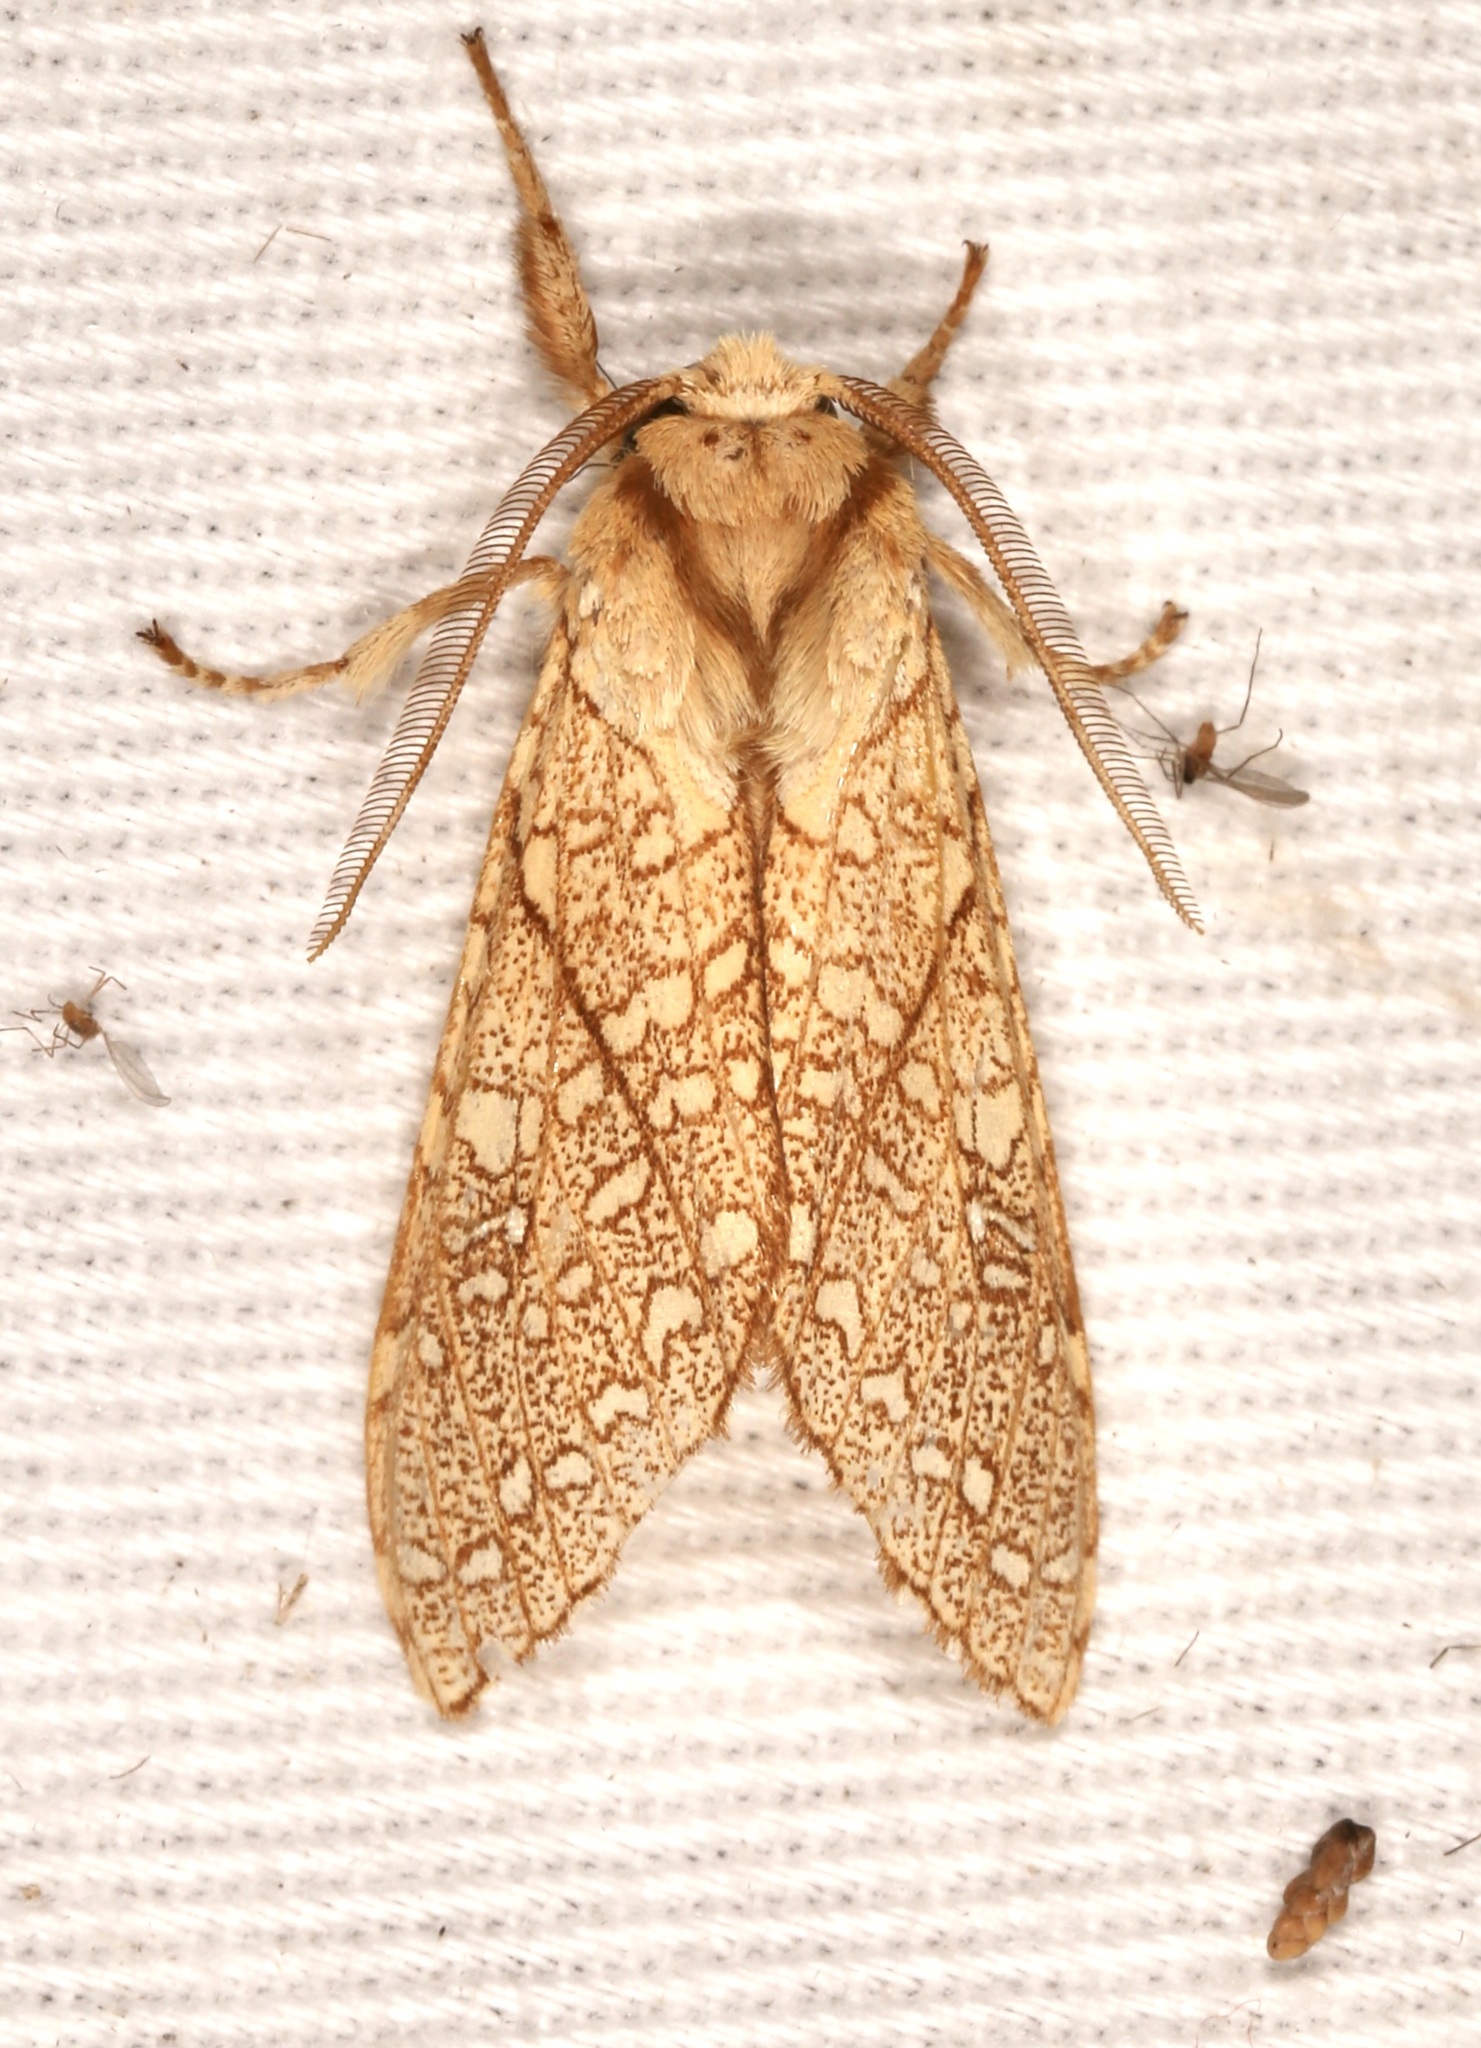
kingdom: Animalia
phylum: Arthropoda
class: Insecta
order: Lepidoptera
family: Erebidae
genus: Lophocampa
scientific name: Lophocampa mixta
